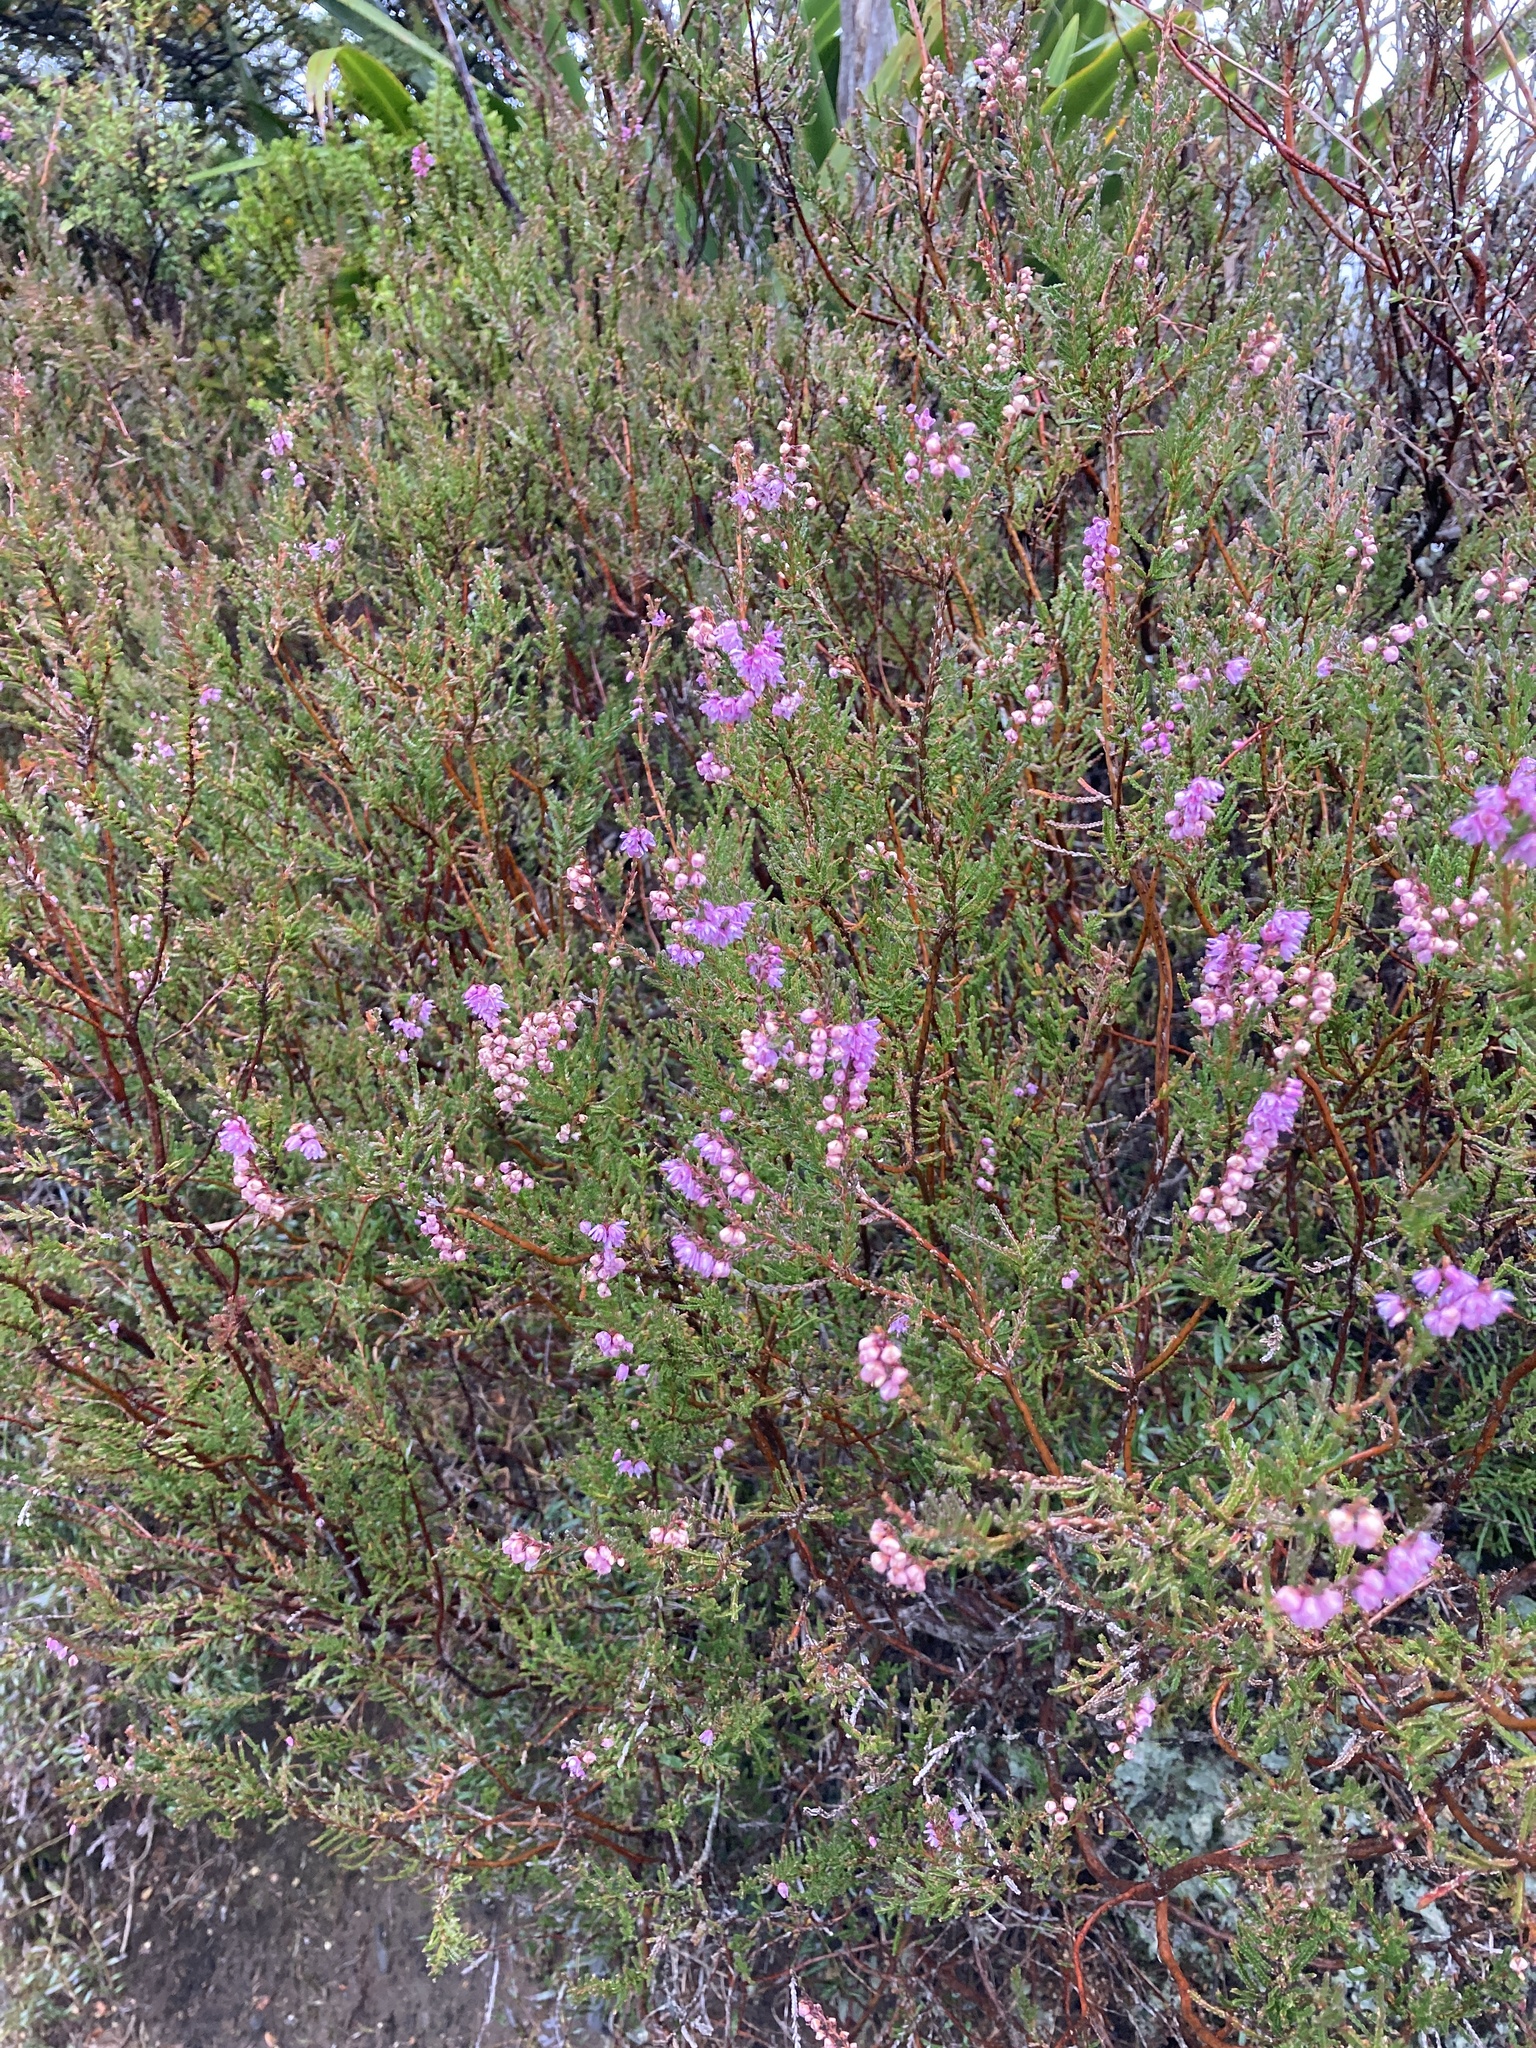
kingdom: Plantae
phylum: Tracheophyta
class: Magnoliopsida
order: Ericales
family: Ericaceae
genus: Calluna
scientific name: Calluna vulgaris
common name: Heather
